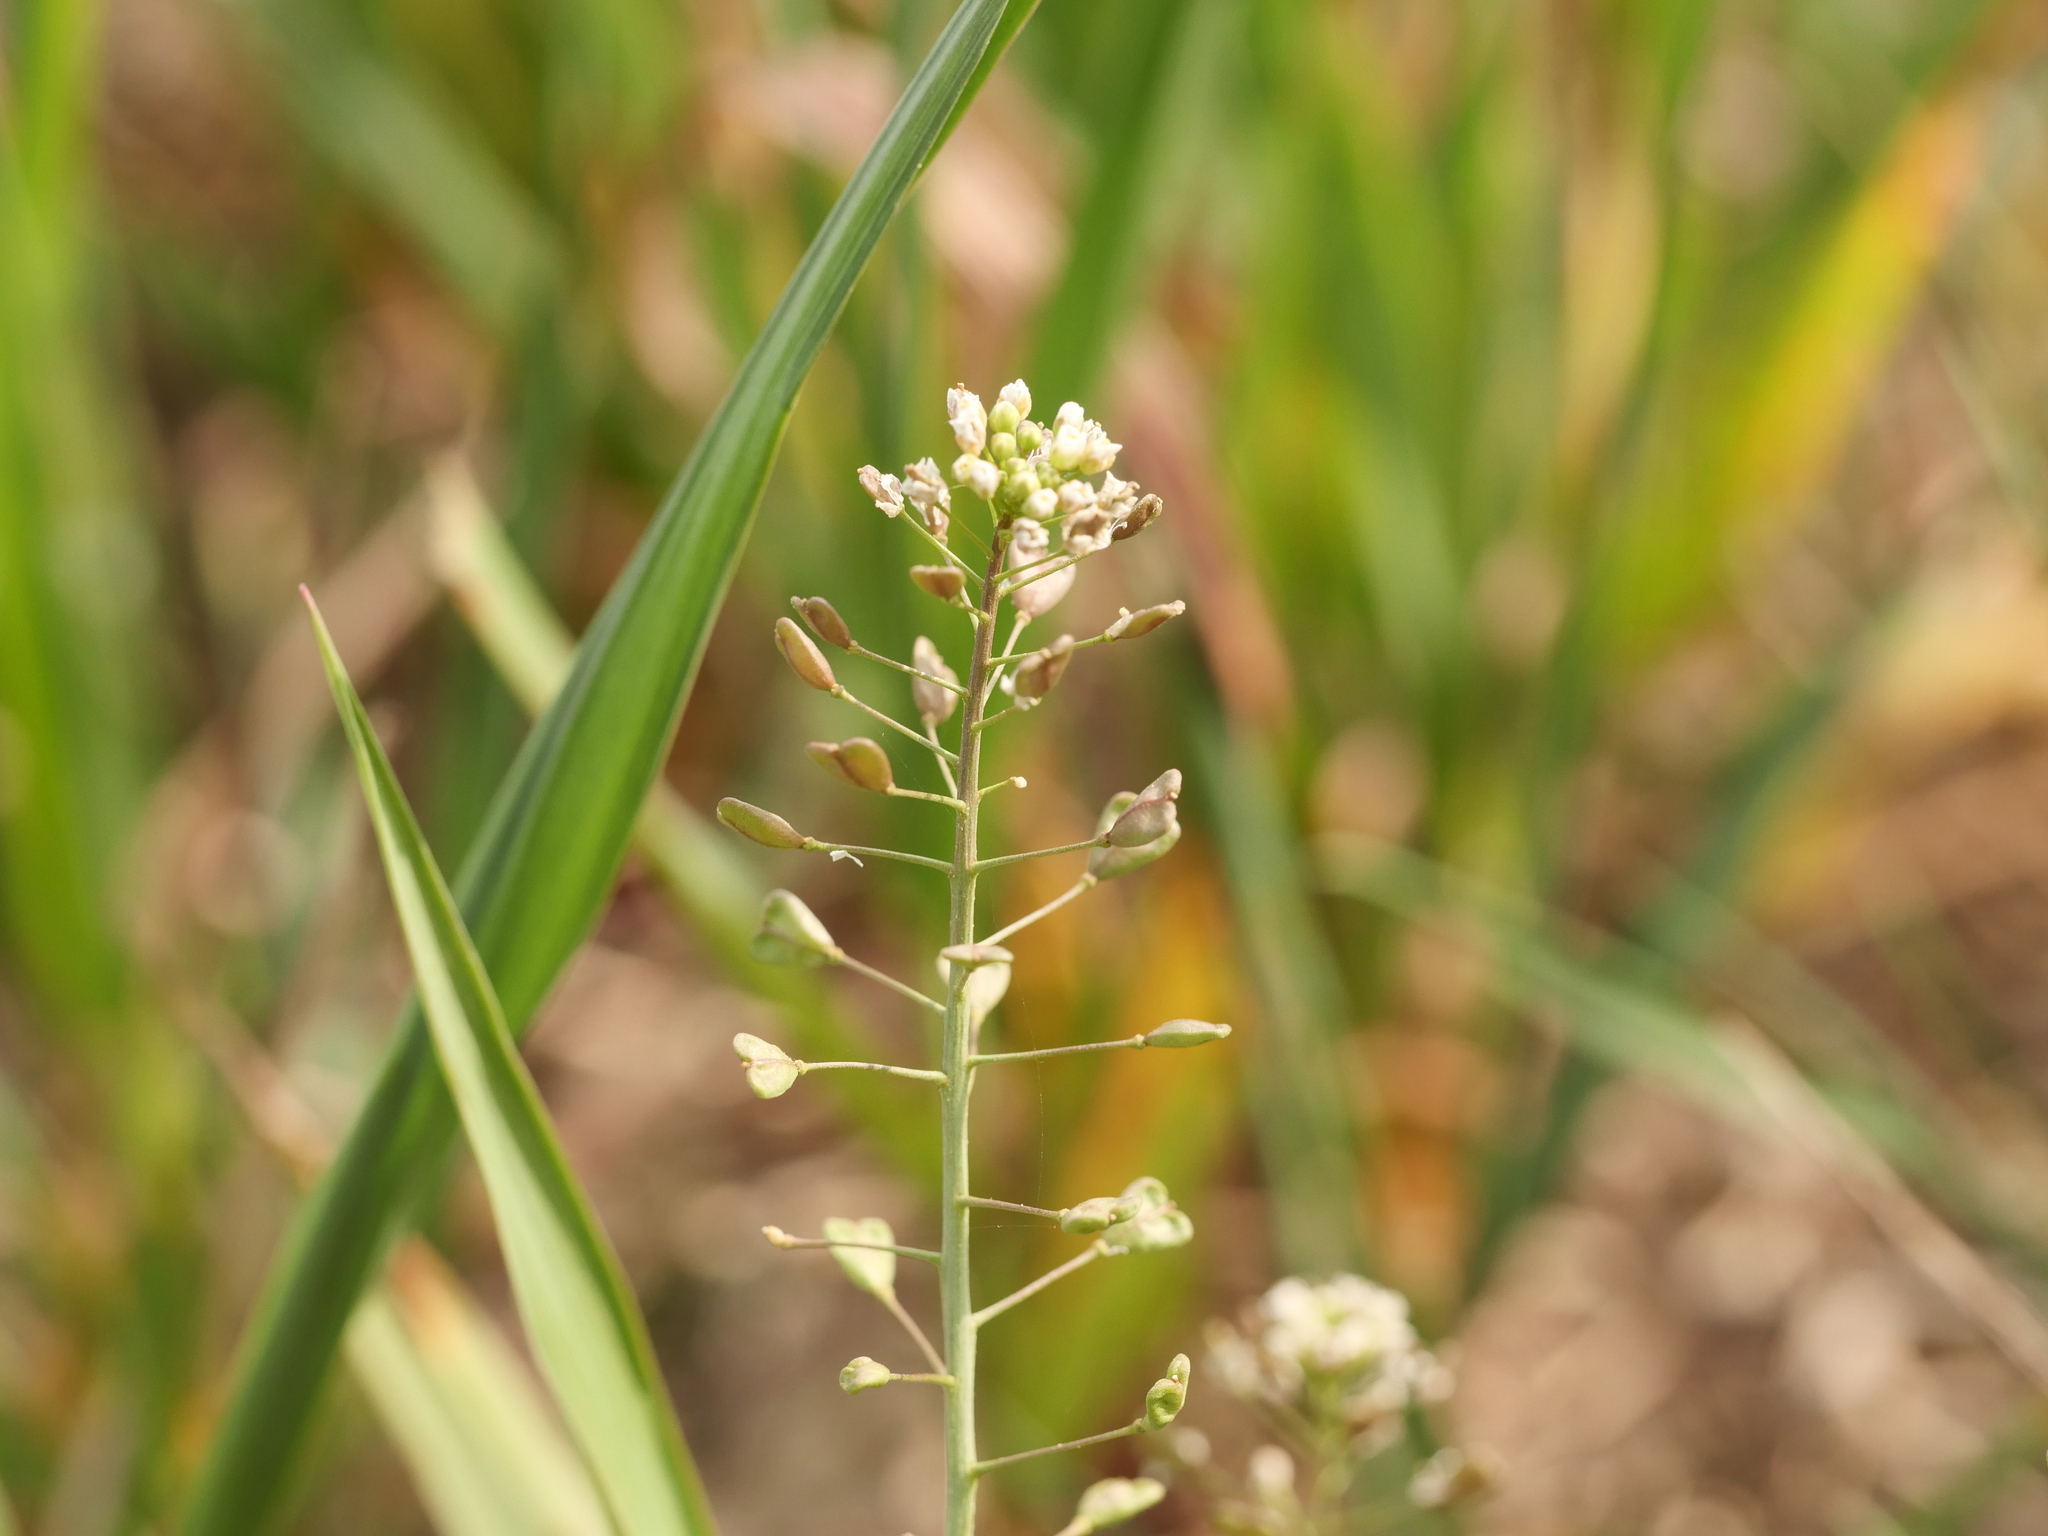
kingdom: Plantae
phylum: Tracheophyta
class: Magnoliopsida
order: Brassicales
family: Brassicaceae
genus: Capsella
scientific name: Capsella bursa-pastoris
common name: Shepherd's purse
